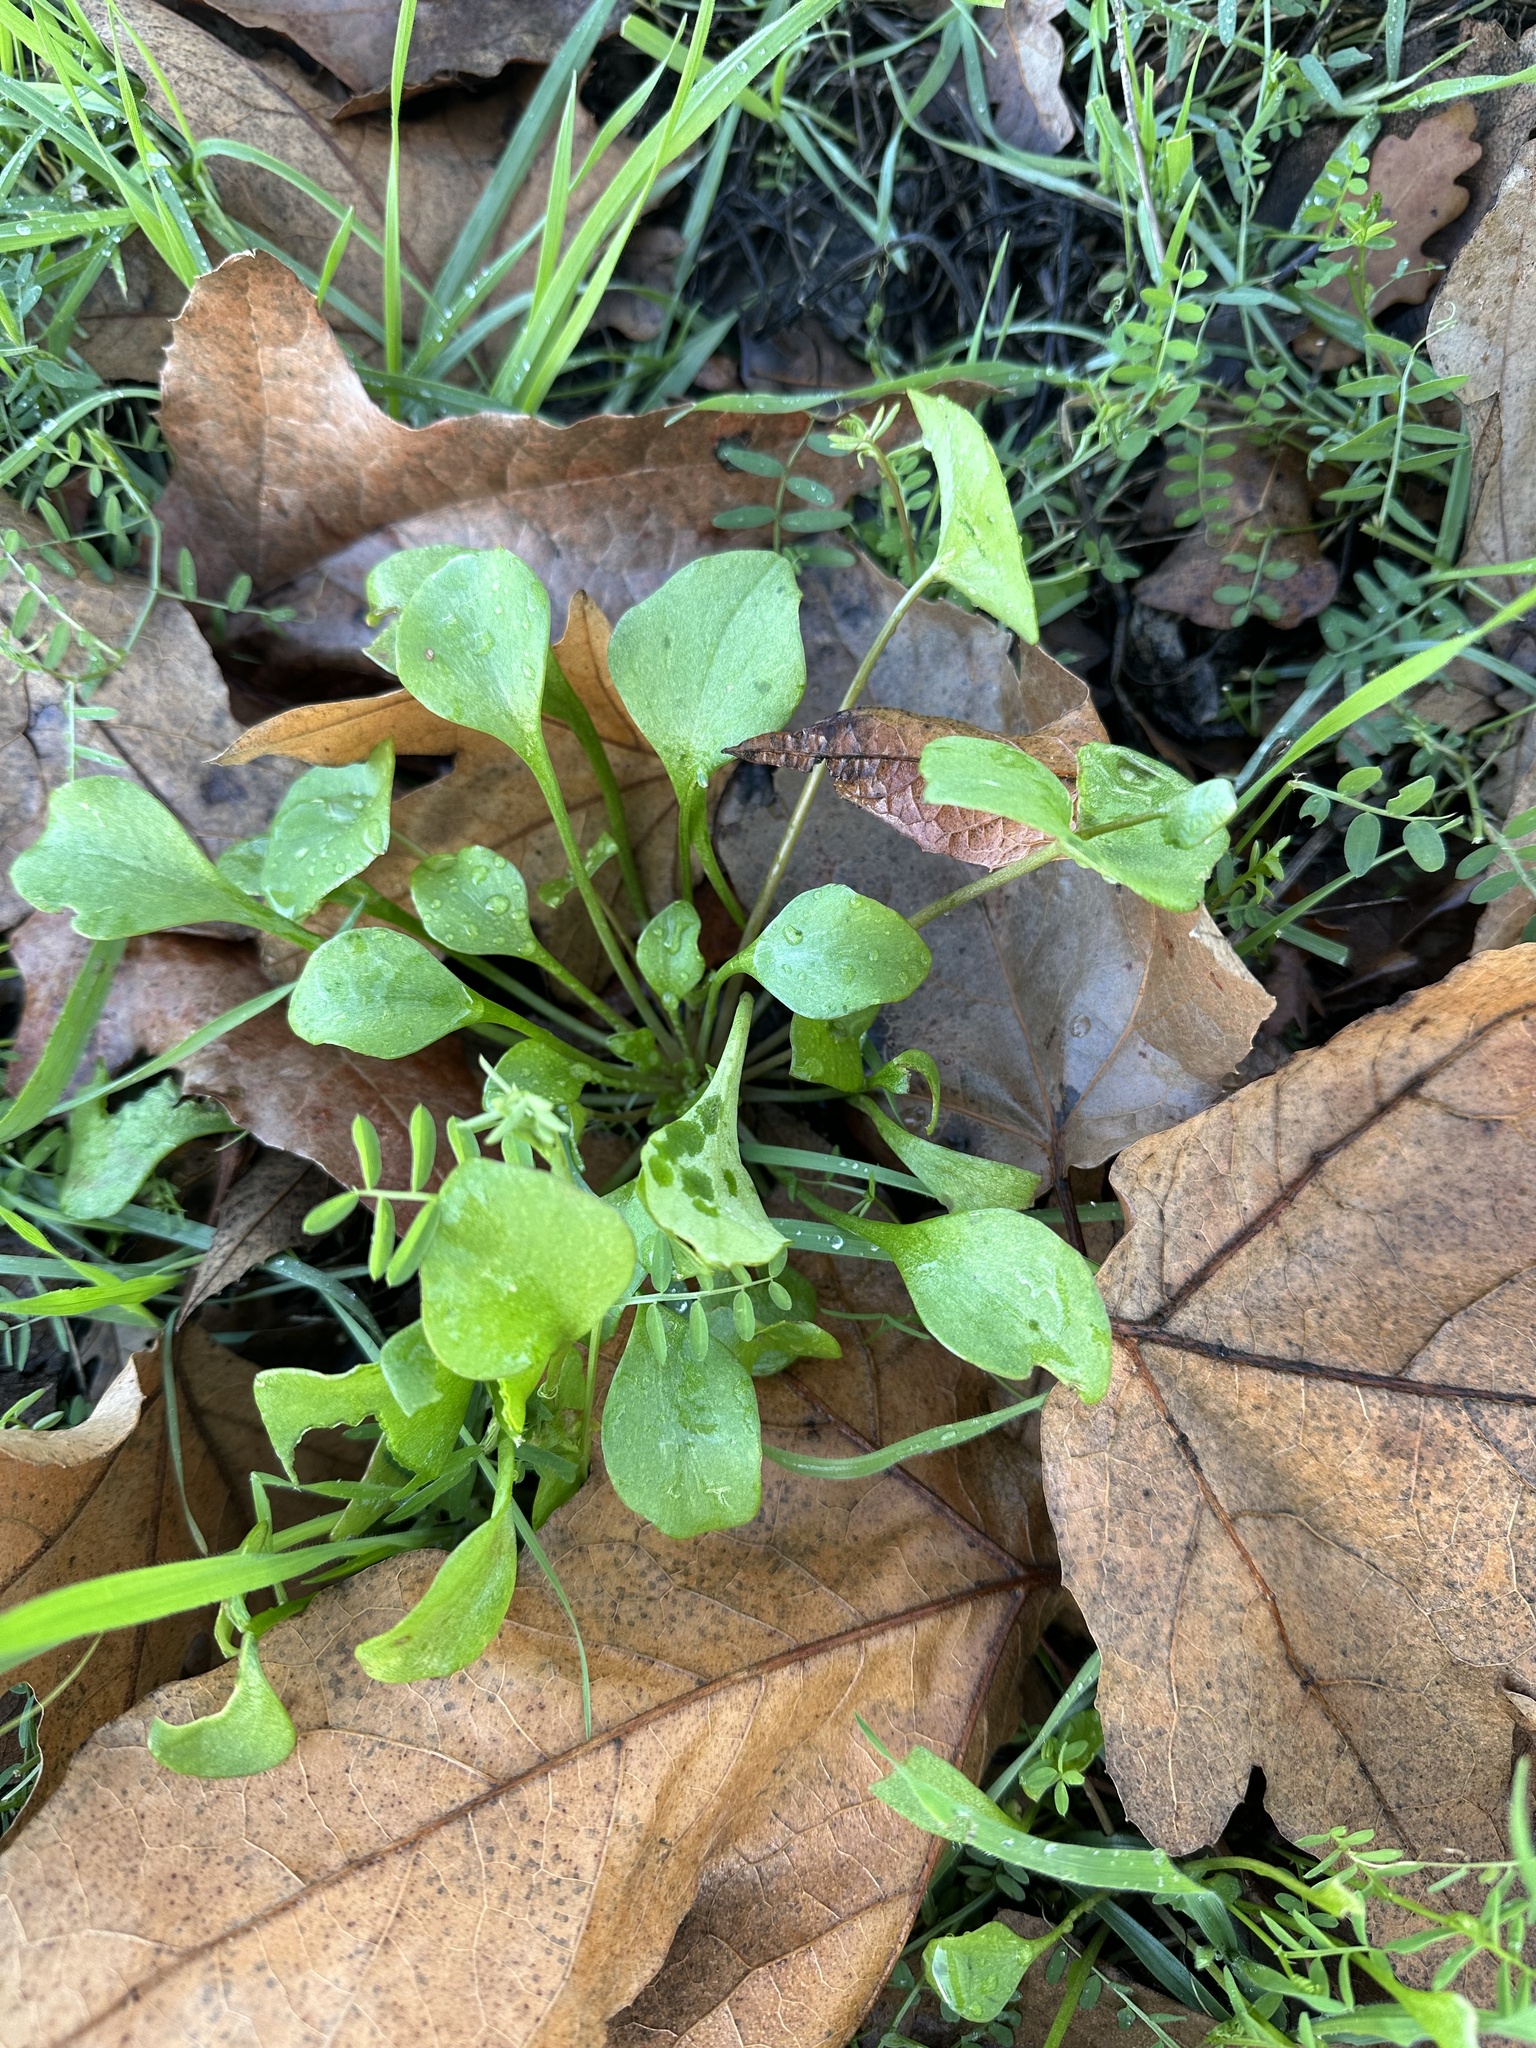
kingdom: Plantae
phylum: Tracheophyta
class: Magnoliopsida
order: Caryophyllales
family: Montiaceae
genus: Claytonia
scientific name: Claytonia perfoliata
